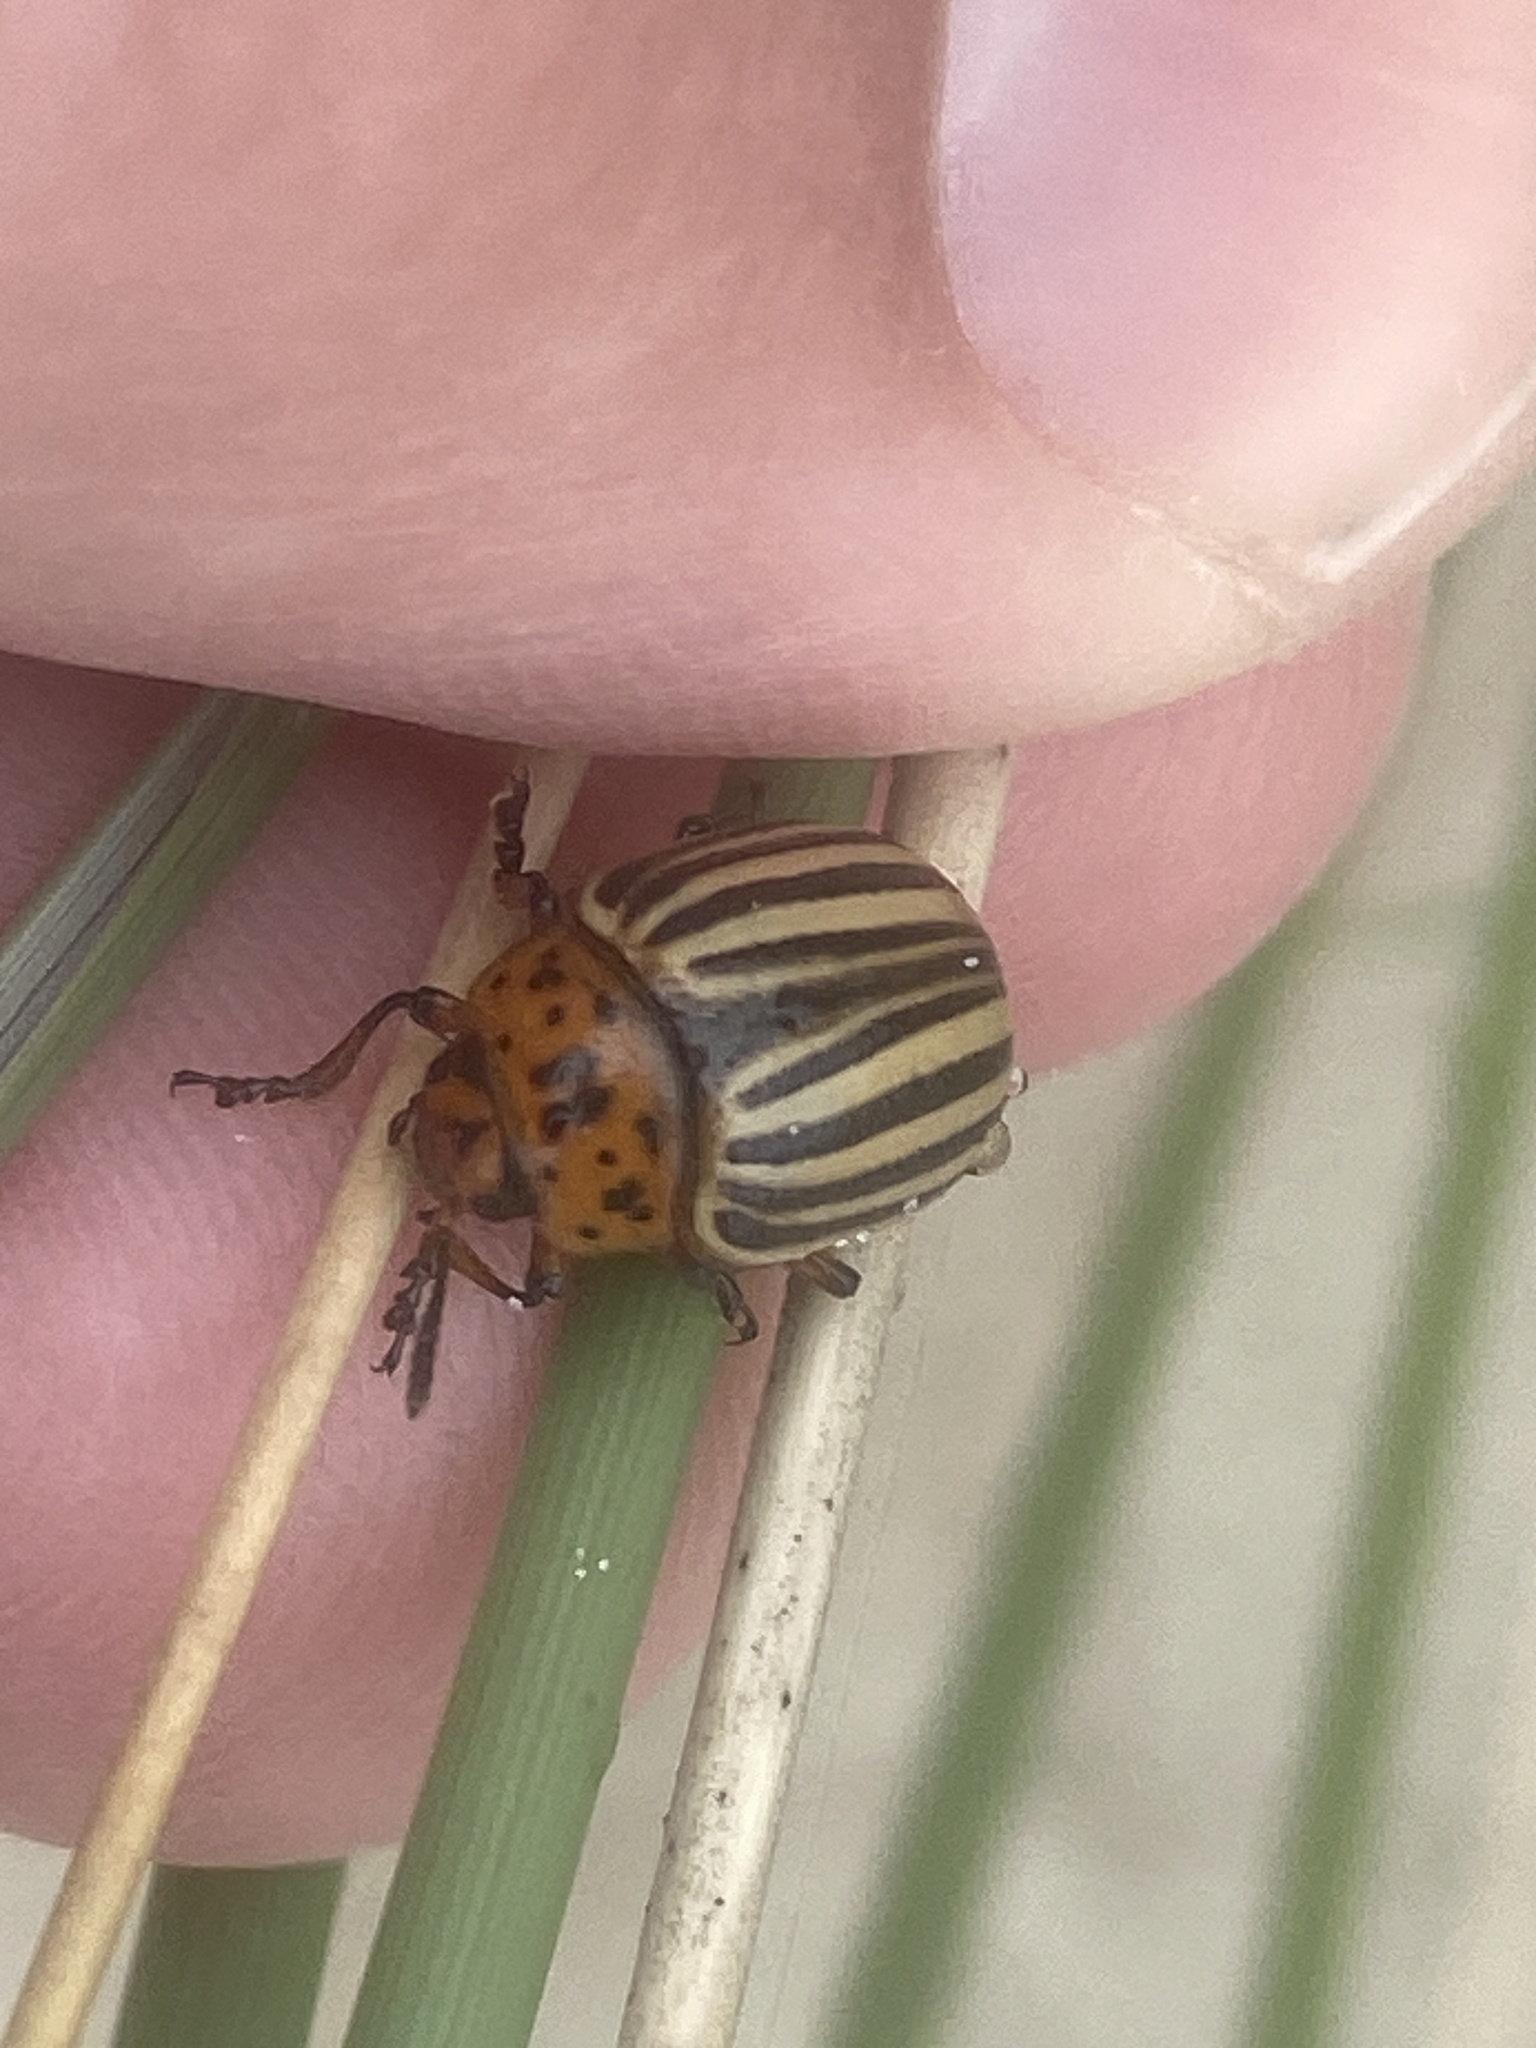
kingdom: Animalia
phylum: Arthropoda
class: Insecta
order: Coleoptera
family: Chrysomelidae
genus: Leptinotarsa
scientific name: Leptinotarsa decemlineata
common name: Colorado potato beetle
